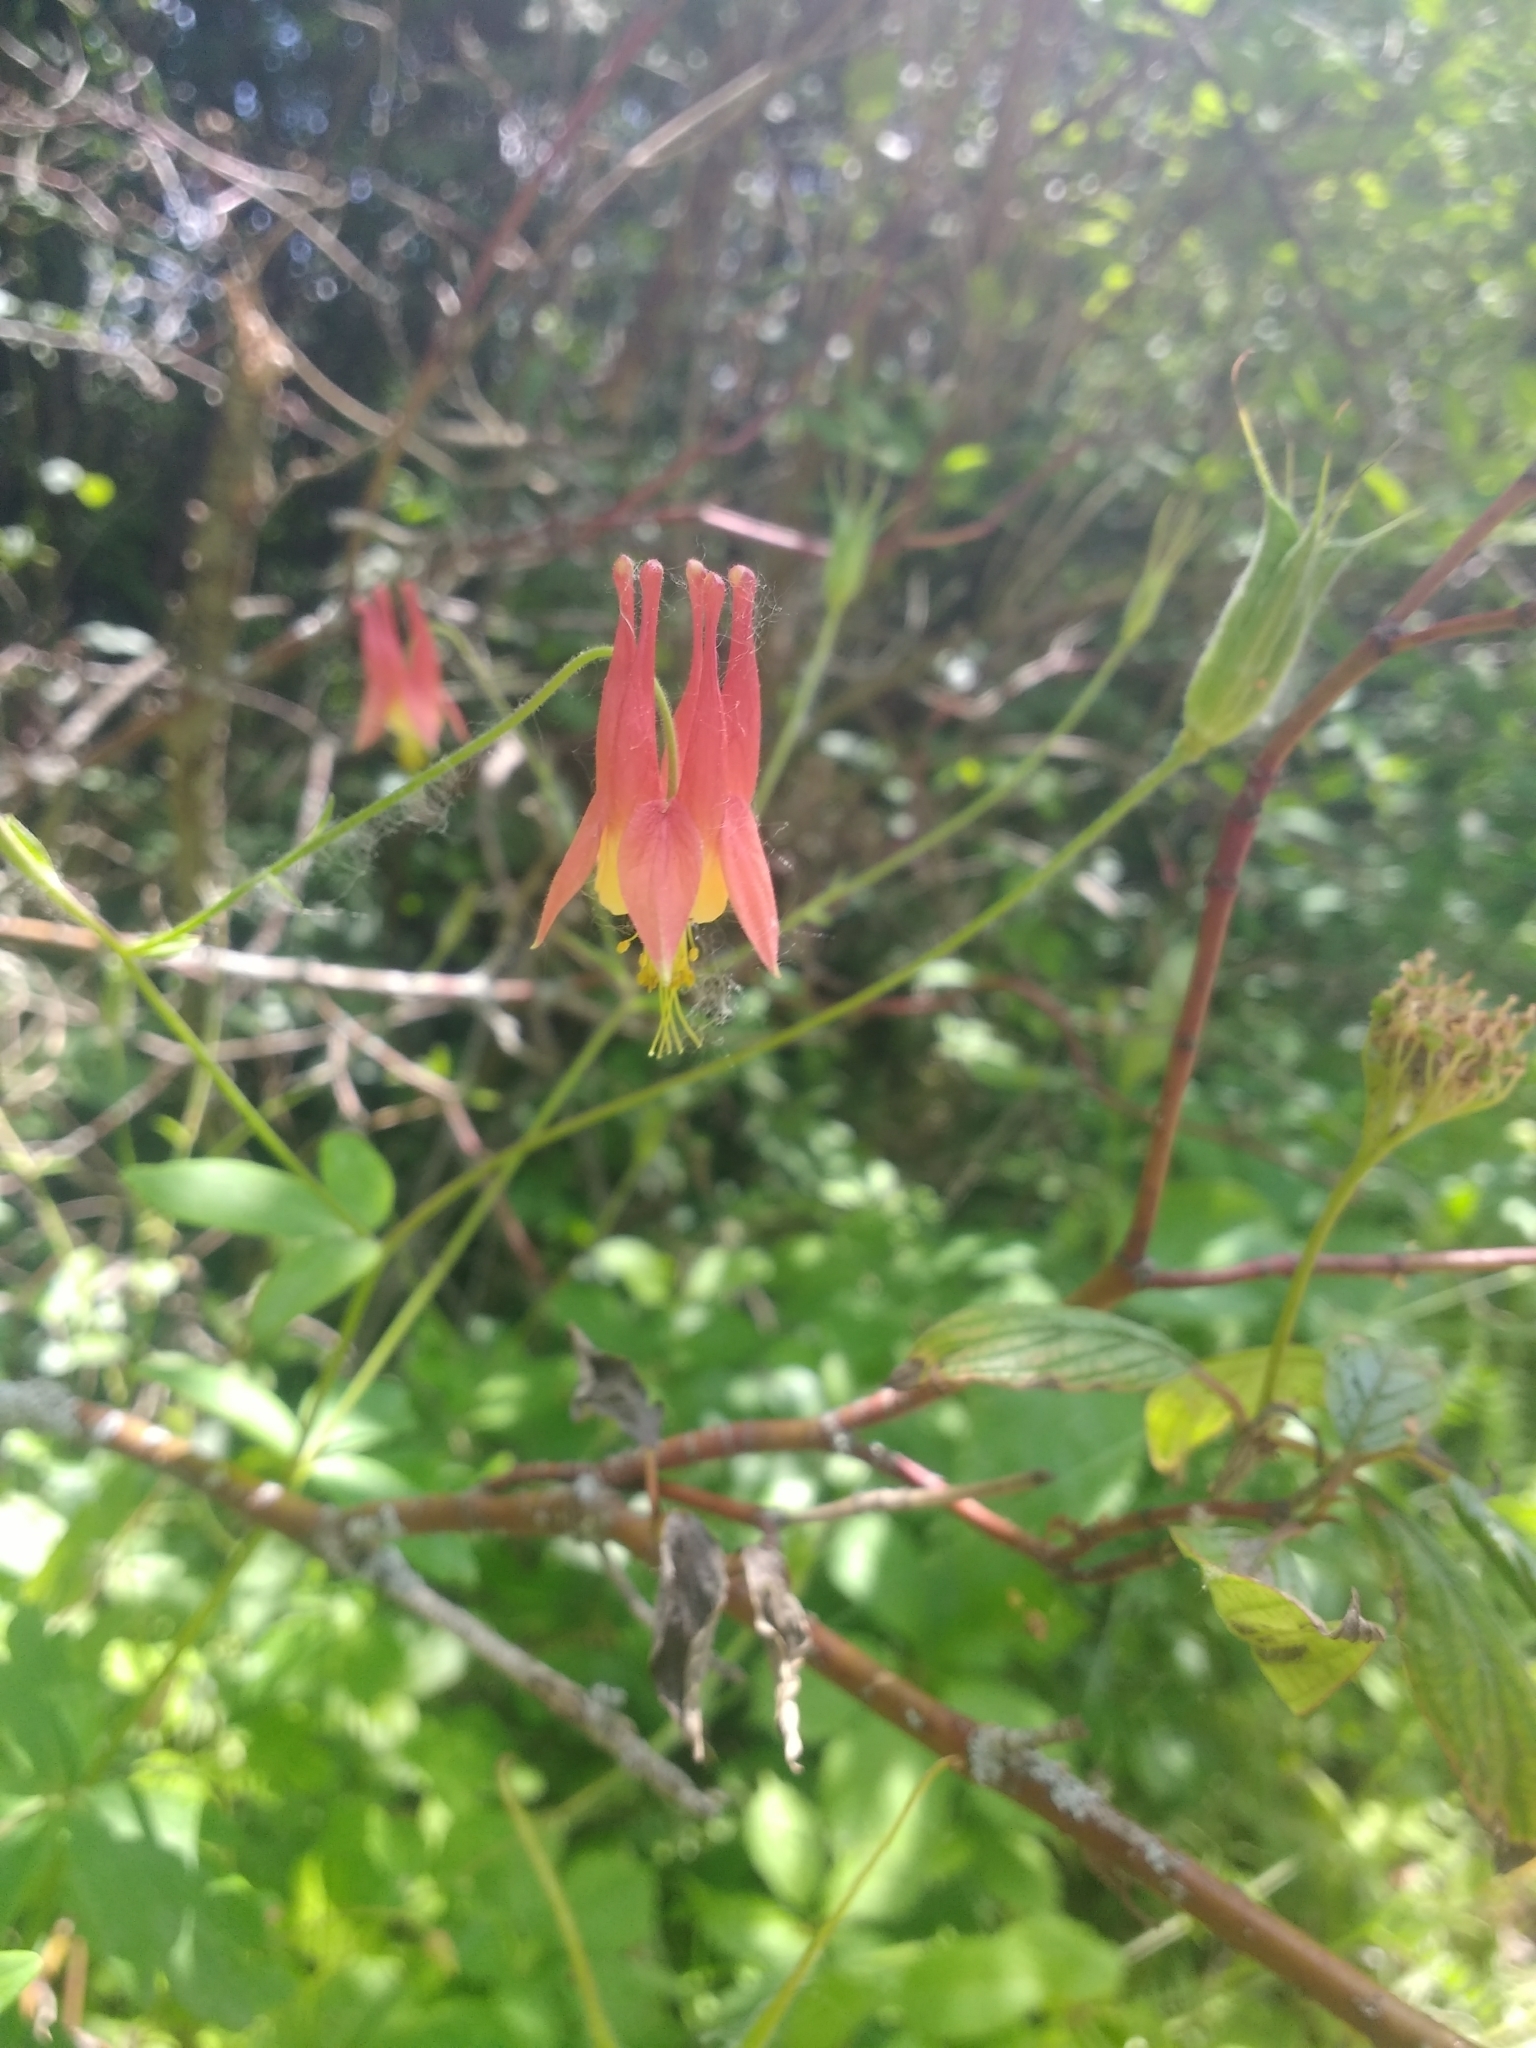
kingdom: Plantae
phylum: Tracheophyta
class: Magnoliopsida
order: Ranunculales
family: Ranunculaceae
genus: Aquilegia
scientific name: Aquilegia canadensis
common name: American columbine
